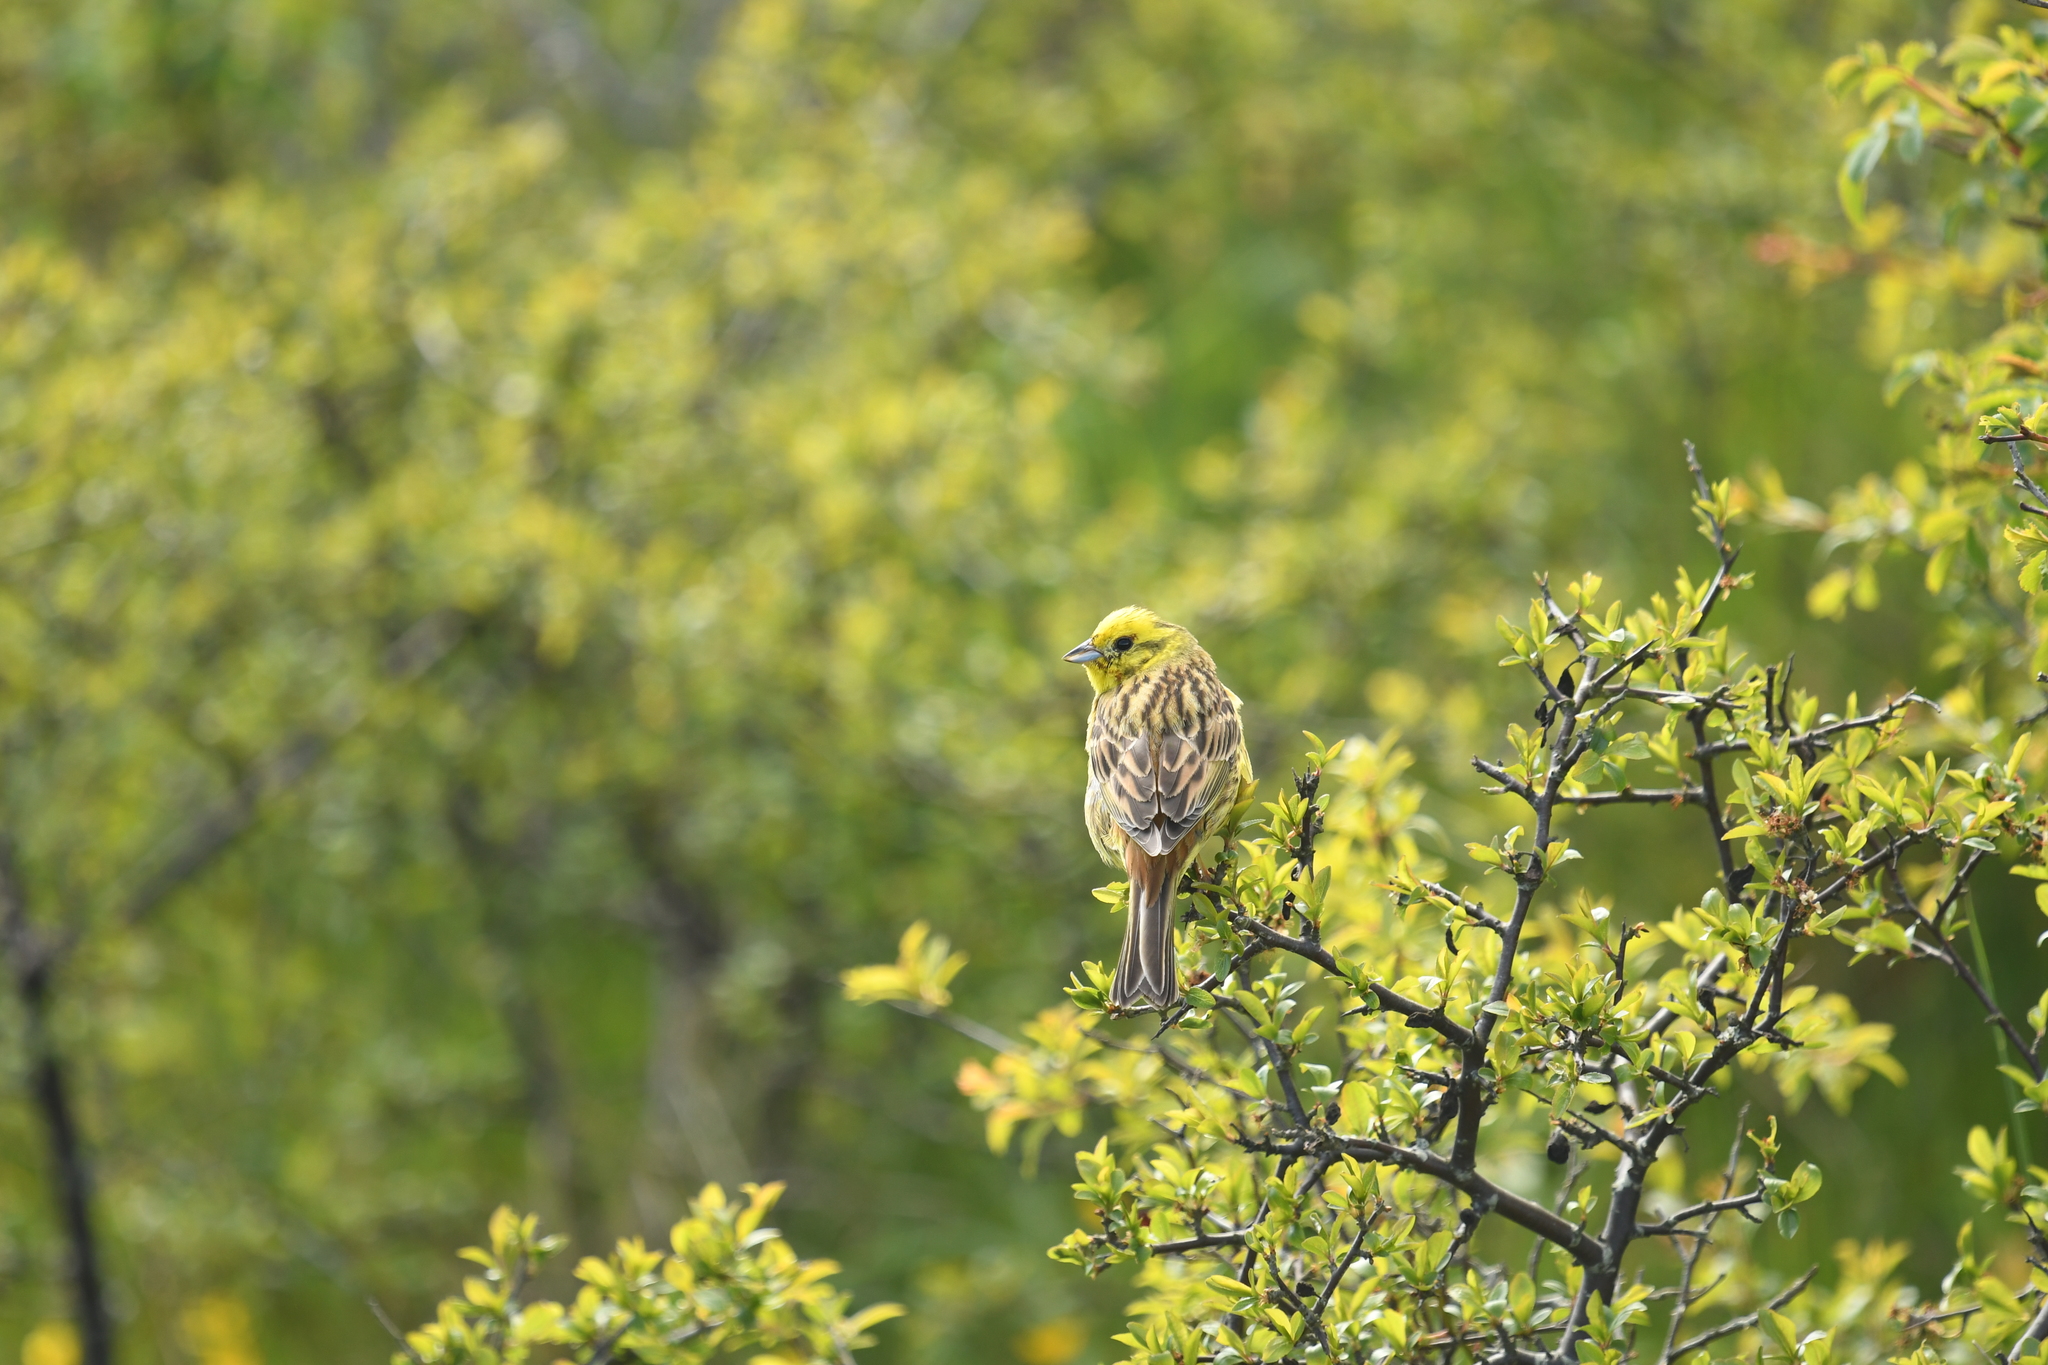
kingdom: Animalia
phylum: Chordata
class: Aves
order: Passeriformes
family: Emberizidae
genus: Emberiza
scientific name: Emberiza citrinella
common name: Yellowhammer
